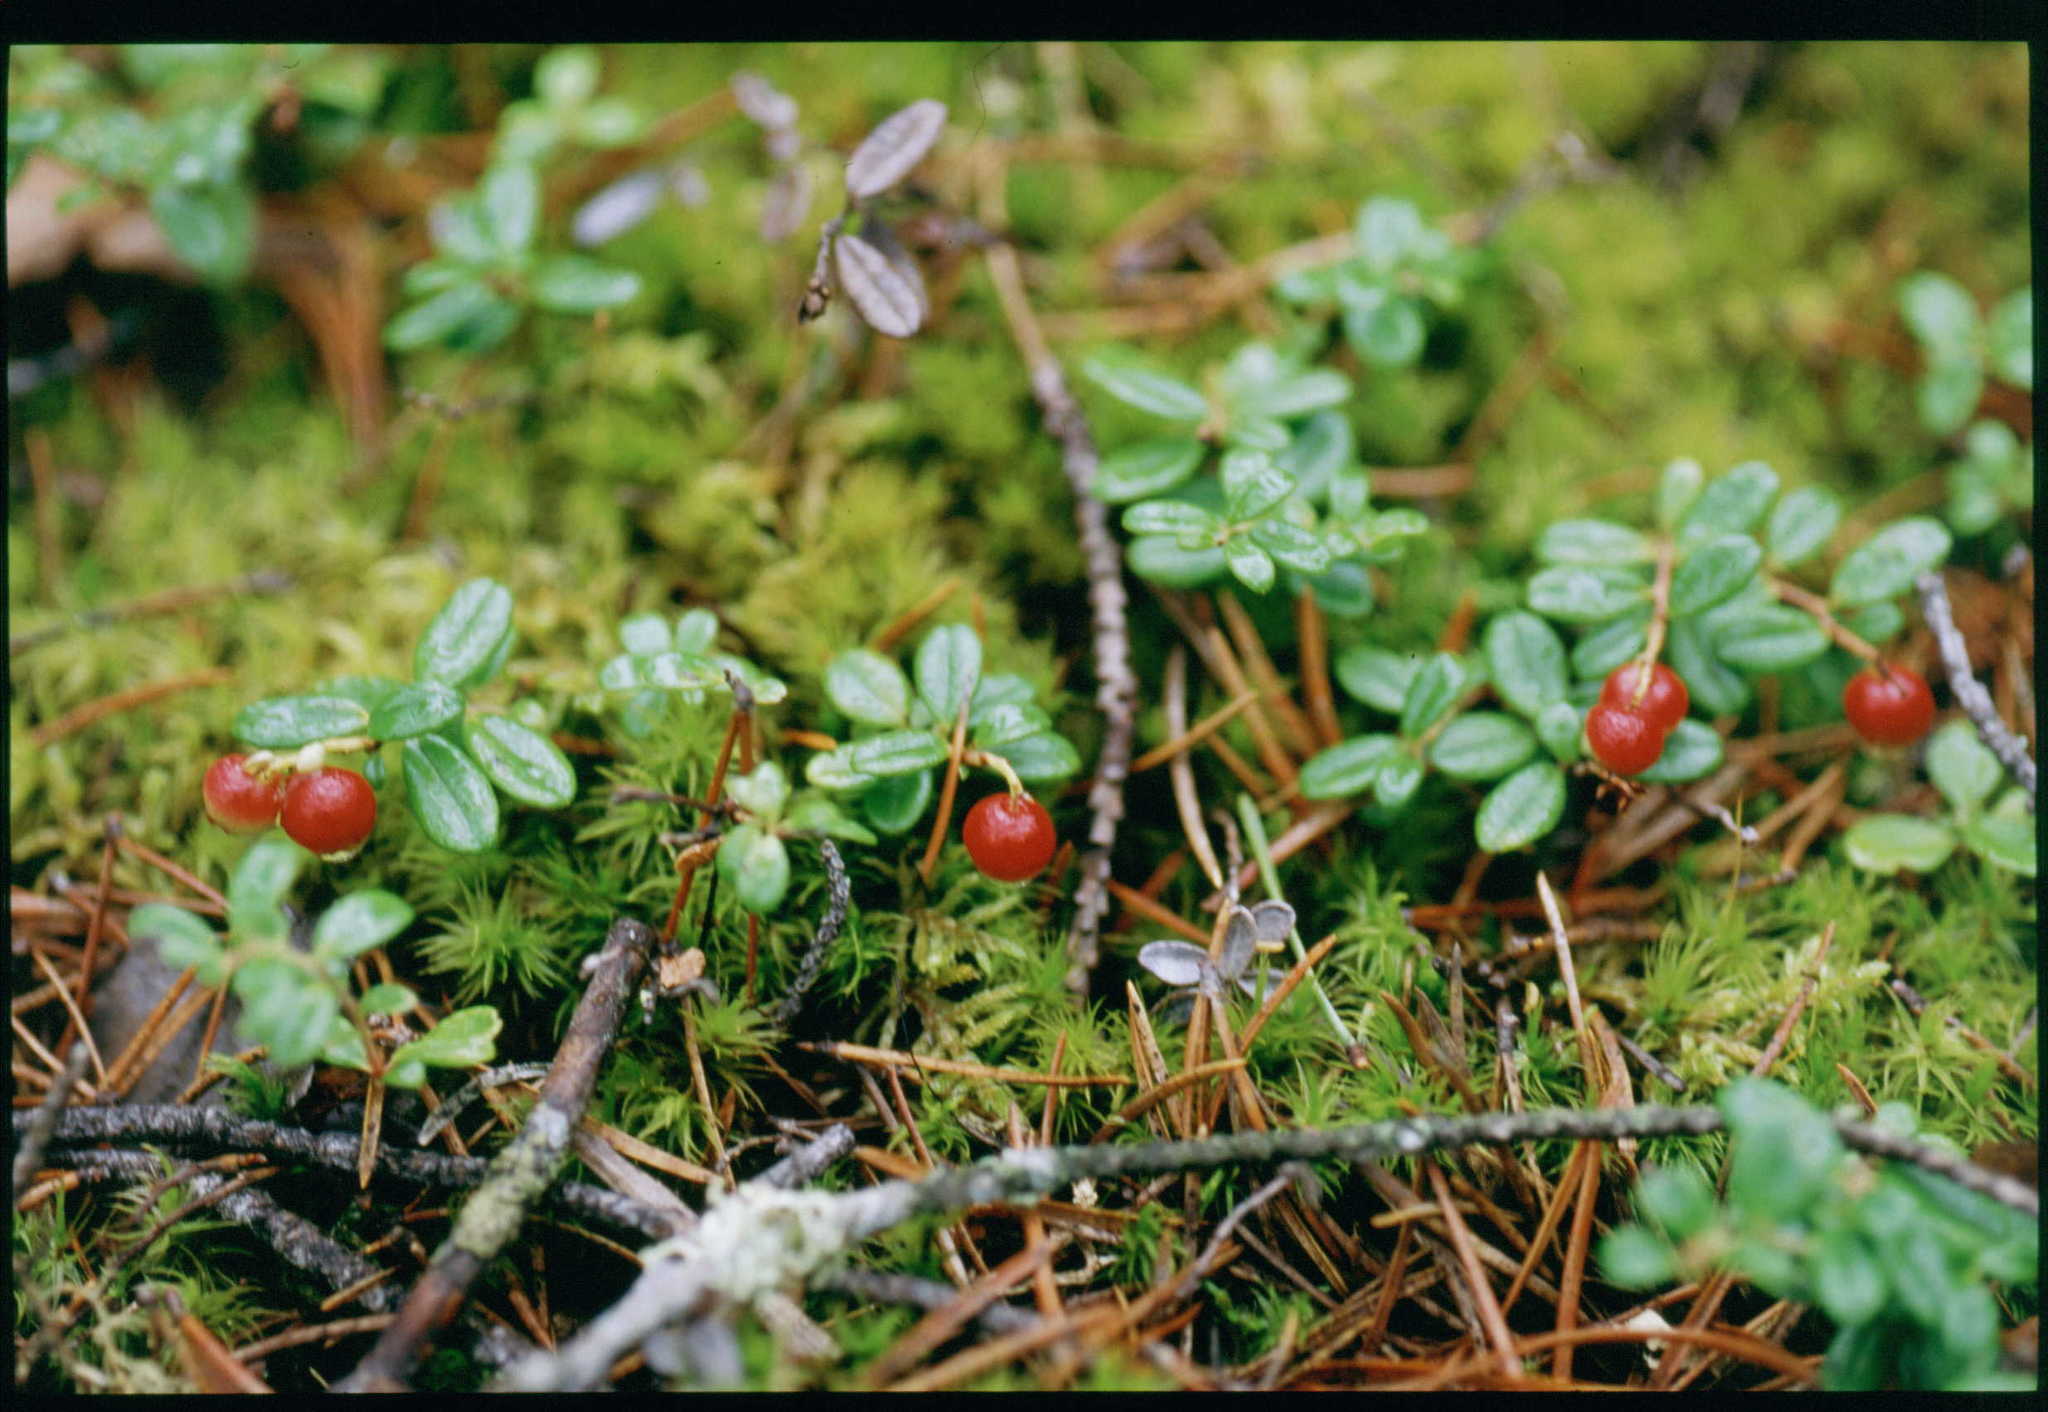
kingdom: Plantae
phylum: Tracheophyta
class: Magnoliopsida
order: Ericales
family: Ericaceae
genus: Vaccinium
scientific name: Vaccinium vitis-idaea
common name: Cowberry
